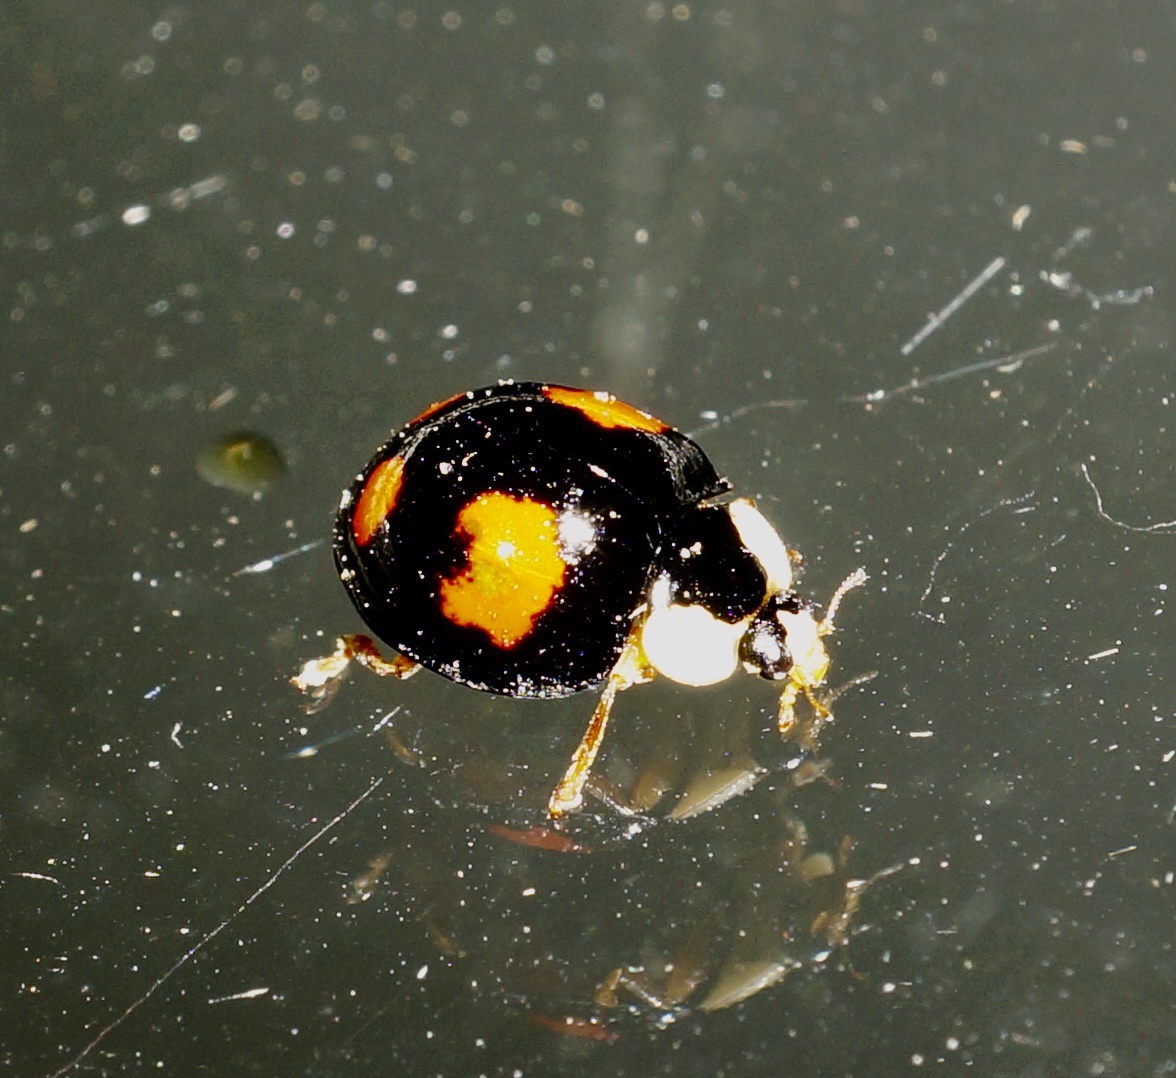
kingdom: Animalia
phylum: Arthropoda
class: Insecta
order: Coleoptera
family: Coccinellidae
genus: Harmonia
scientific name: Harmonia axyridis
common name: Harlequin ladybird
